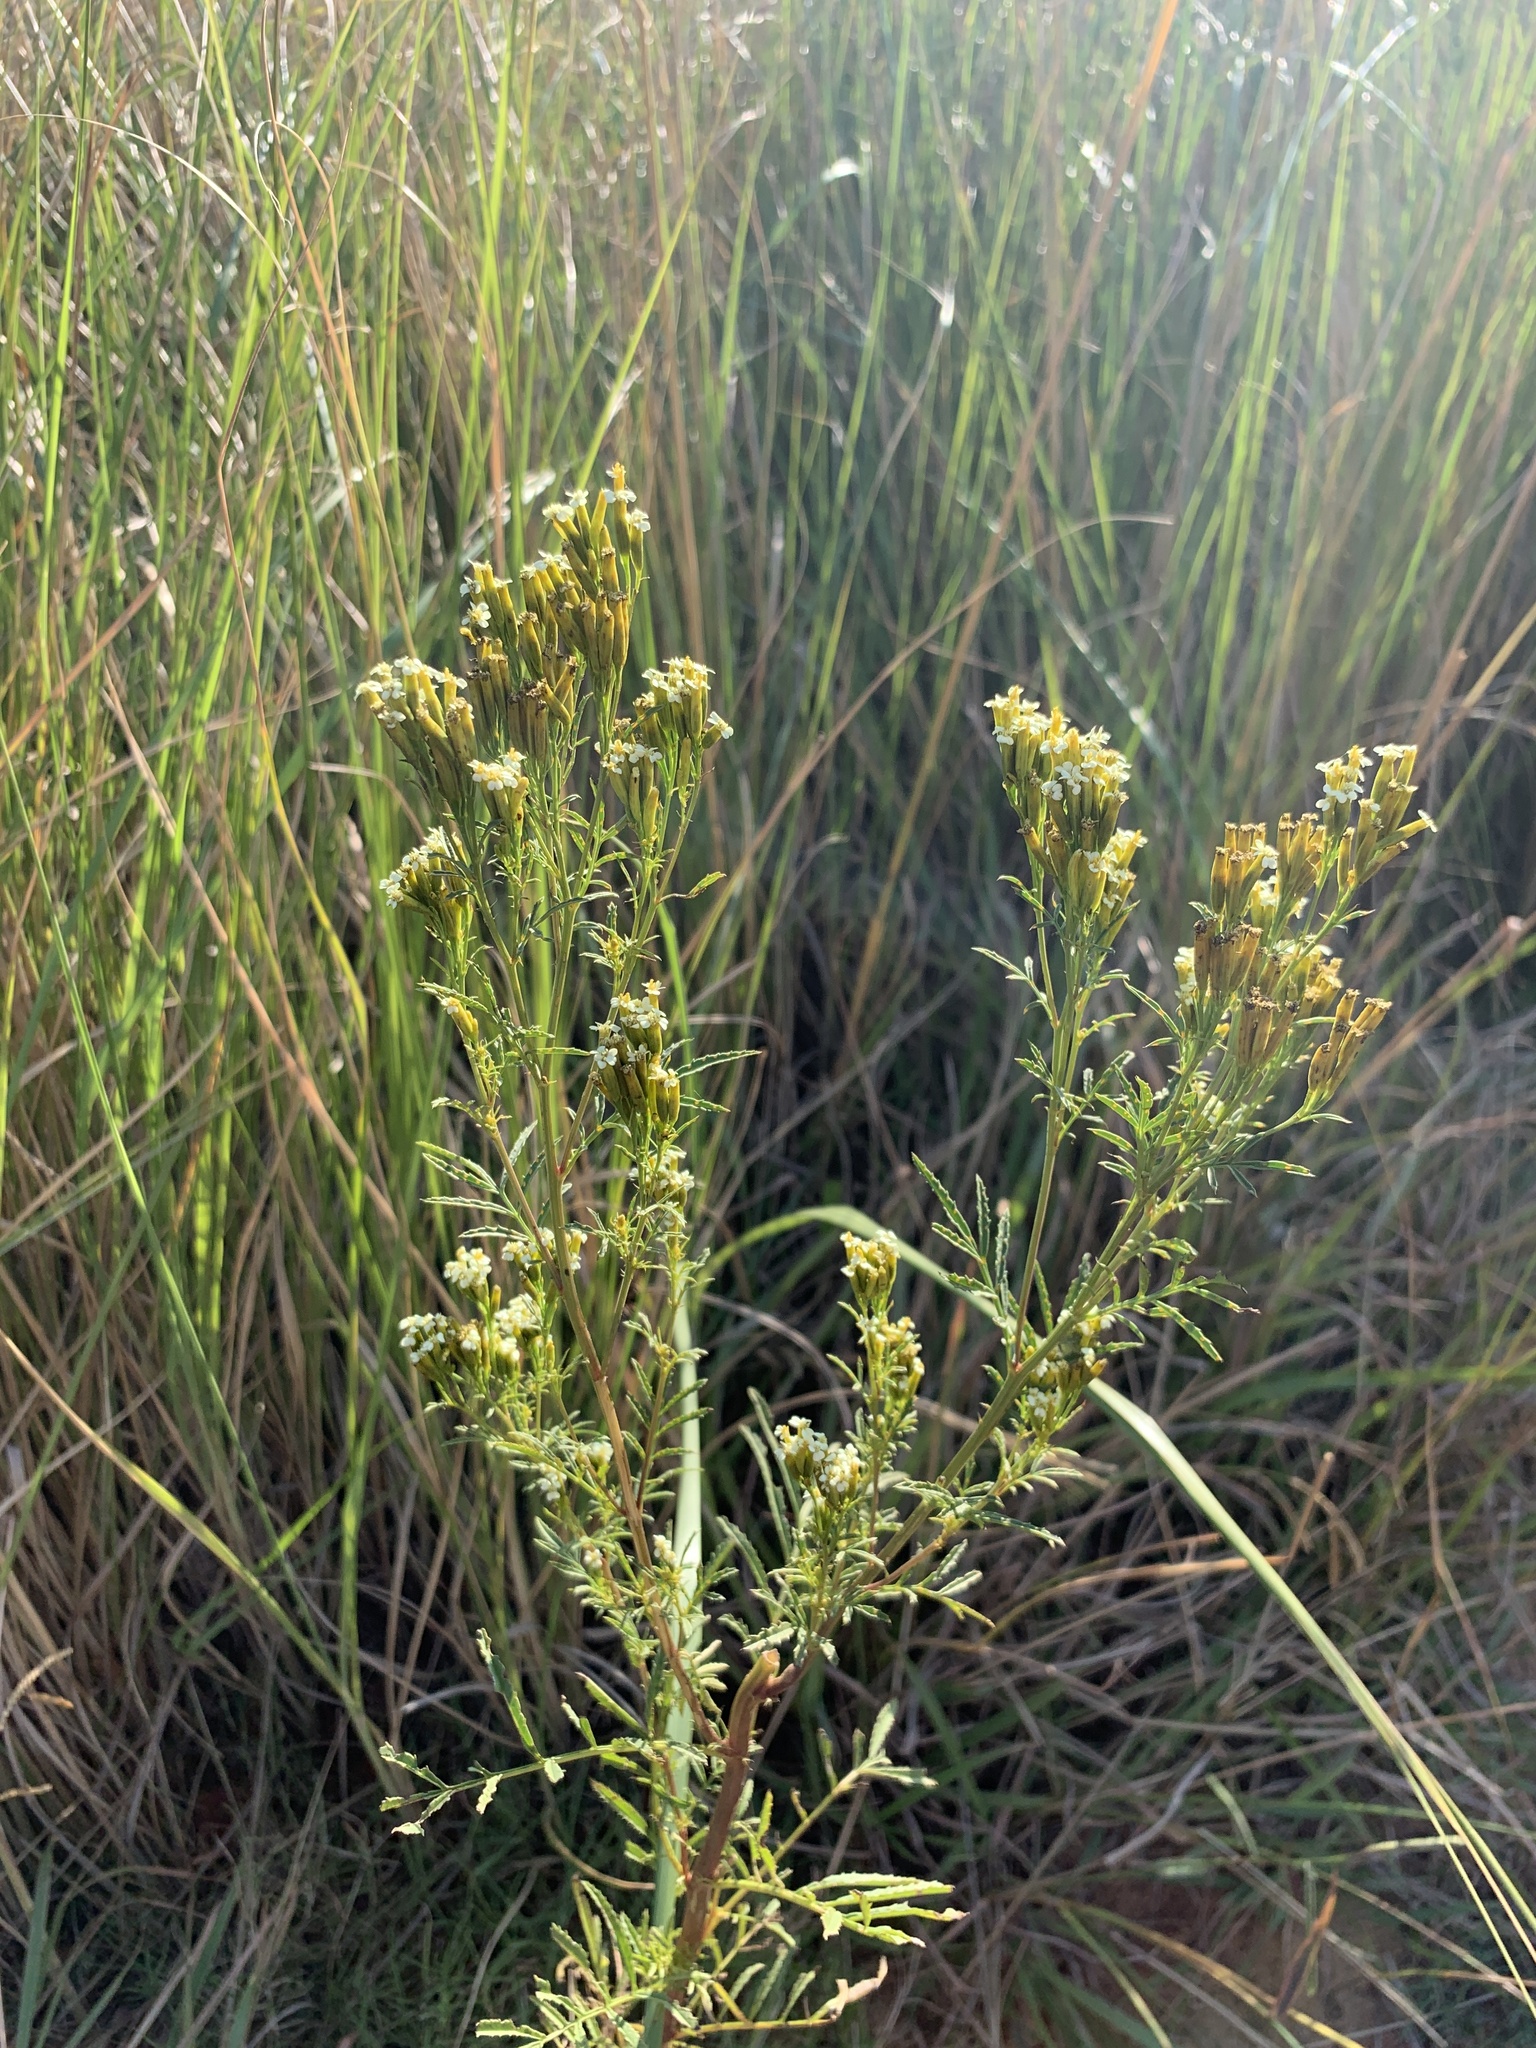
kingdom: Plantae
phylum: Tracheophyta
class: Magnoliopsida
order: Asterales
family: Asteraceae
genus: Tagetes
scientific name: Tagetes minuta
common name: Muster john henry
